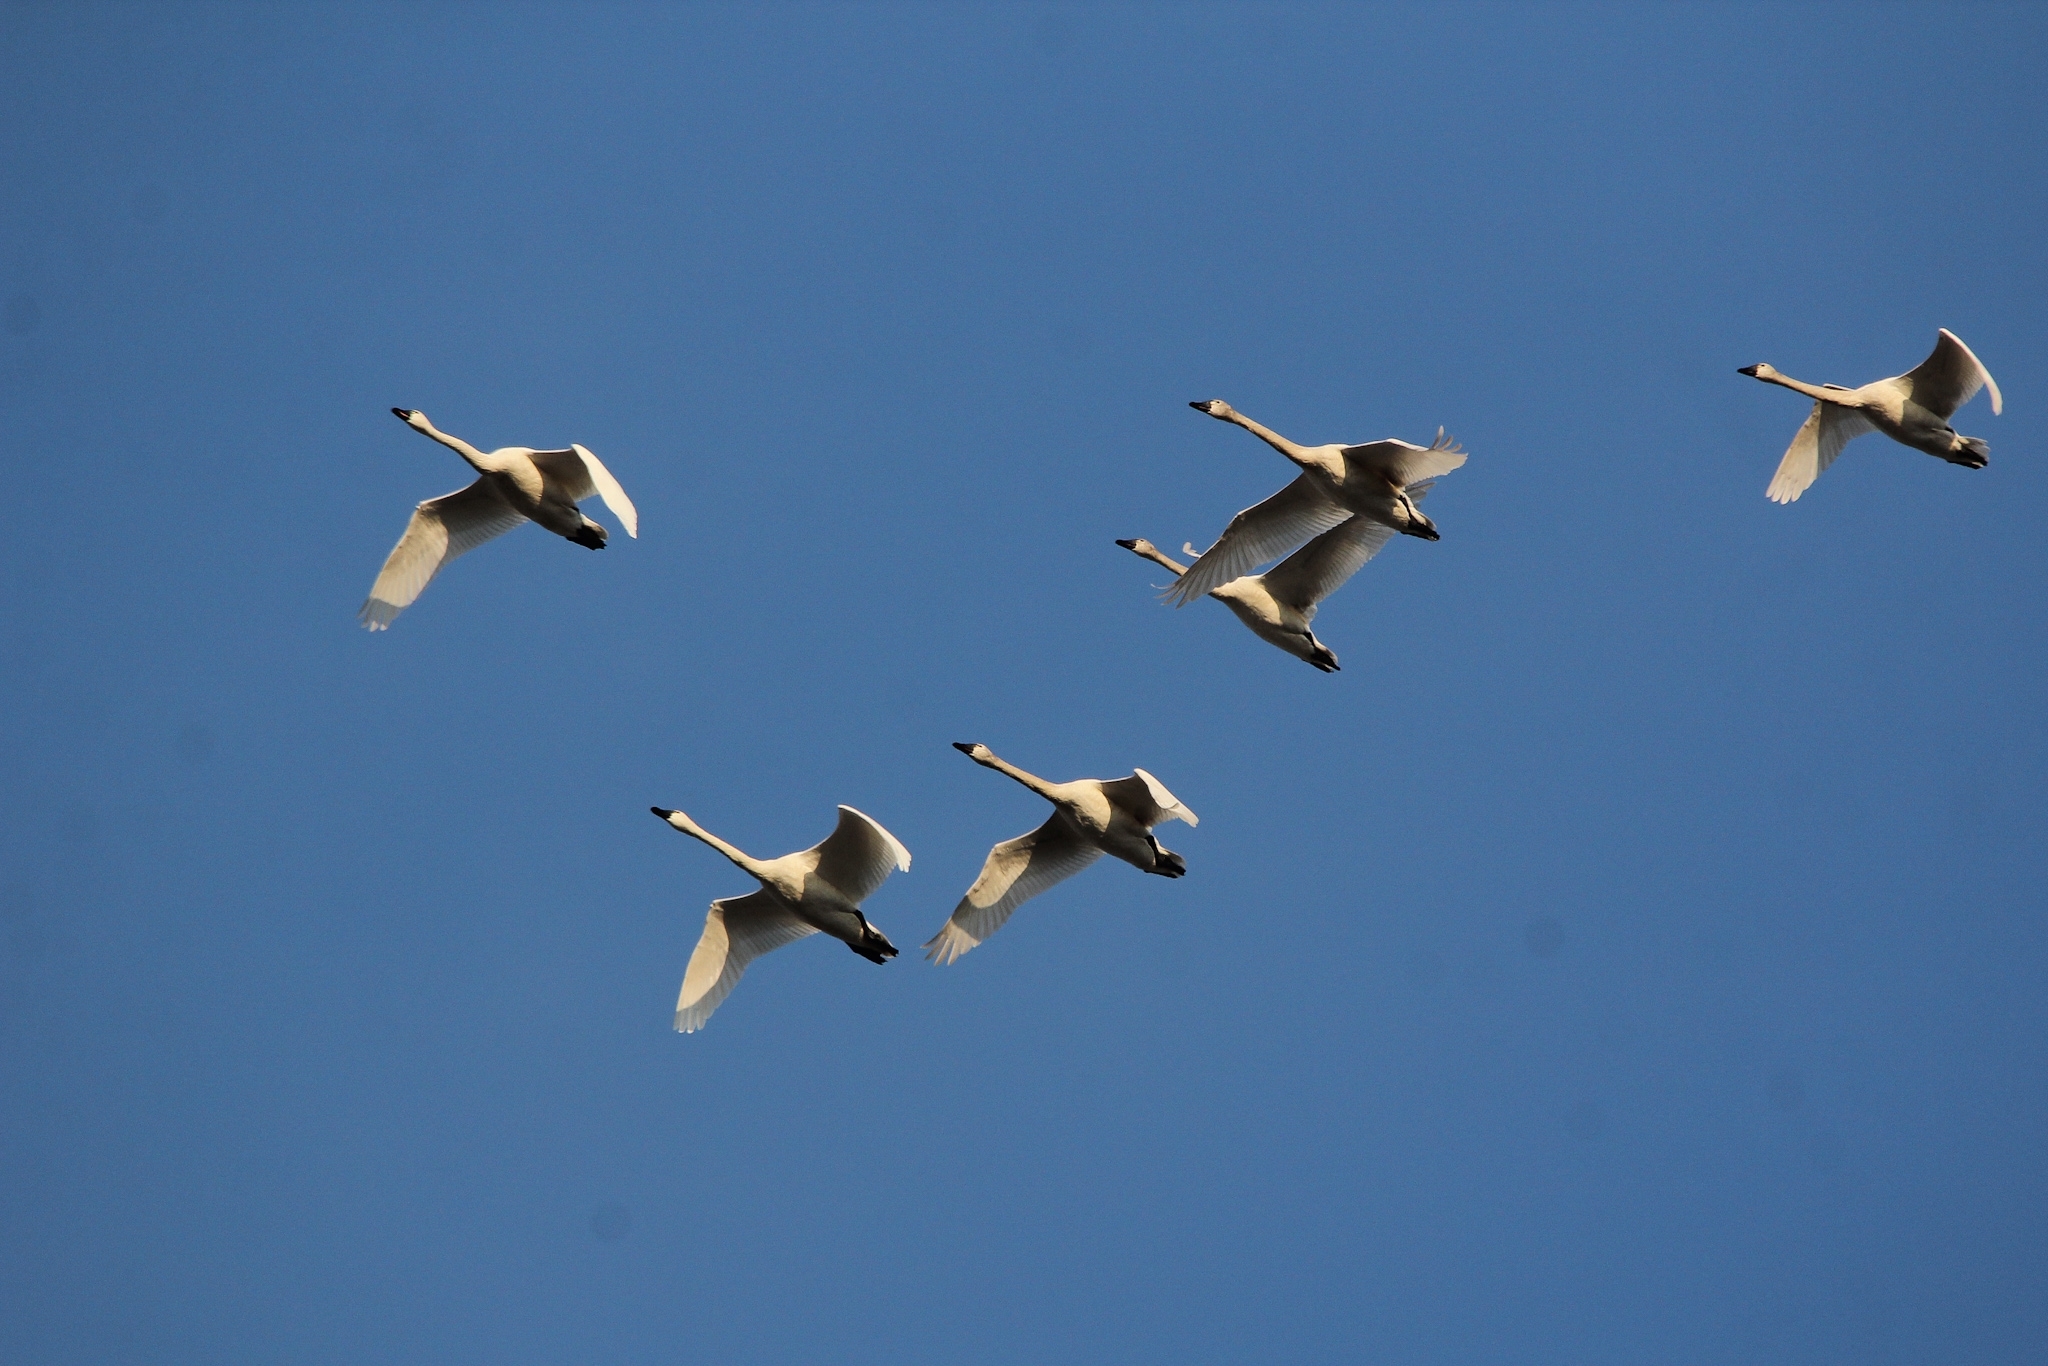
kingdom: Animalia
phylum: Chordata
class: Aves
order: Anseriformes
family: Anatidae
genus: Cygnus
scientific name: Cygnus columbianus
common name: Tundra swan
